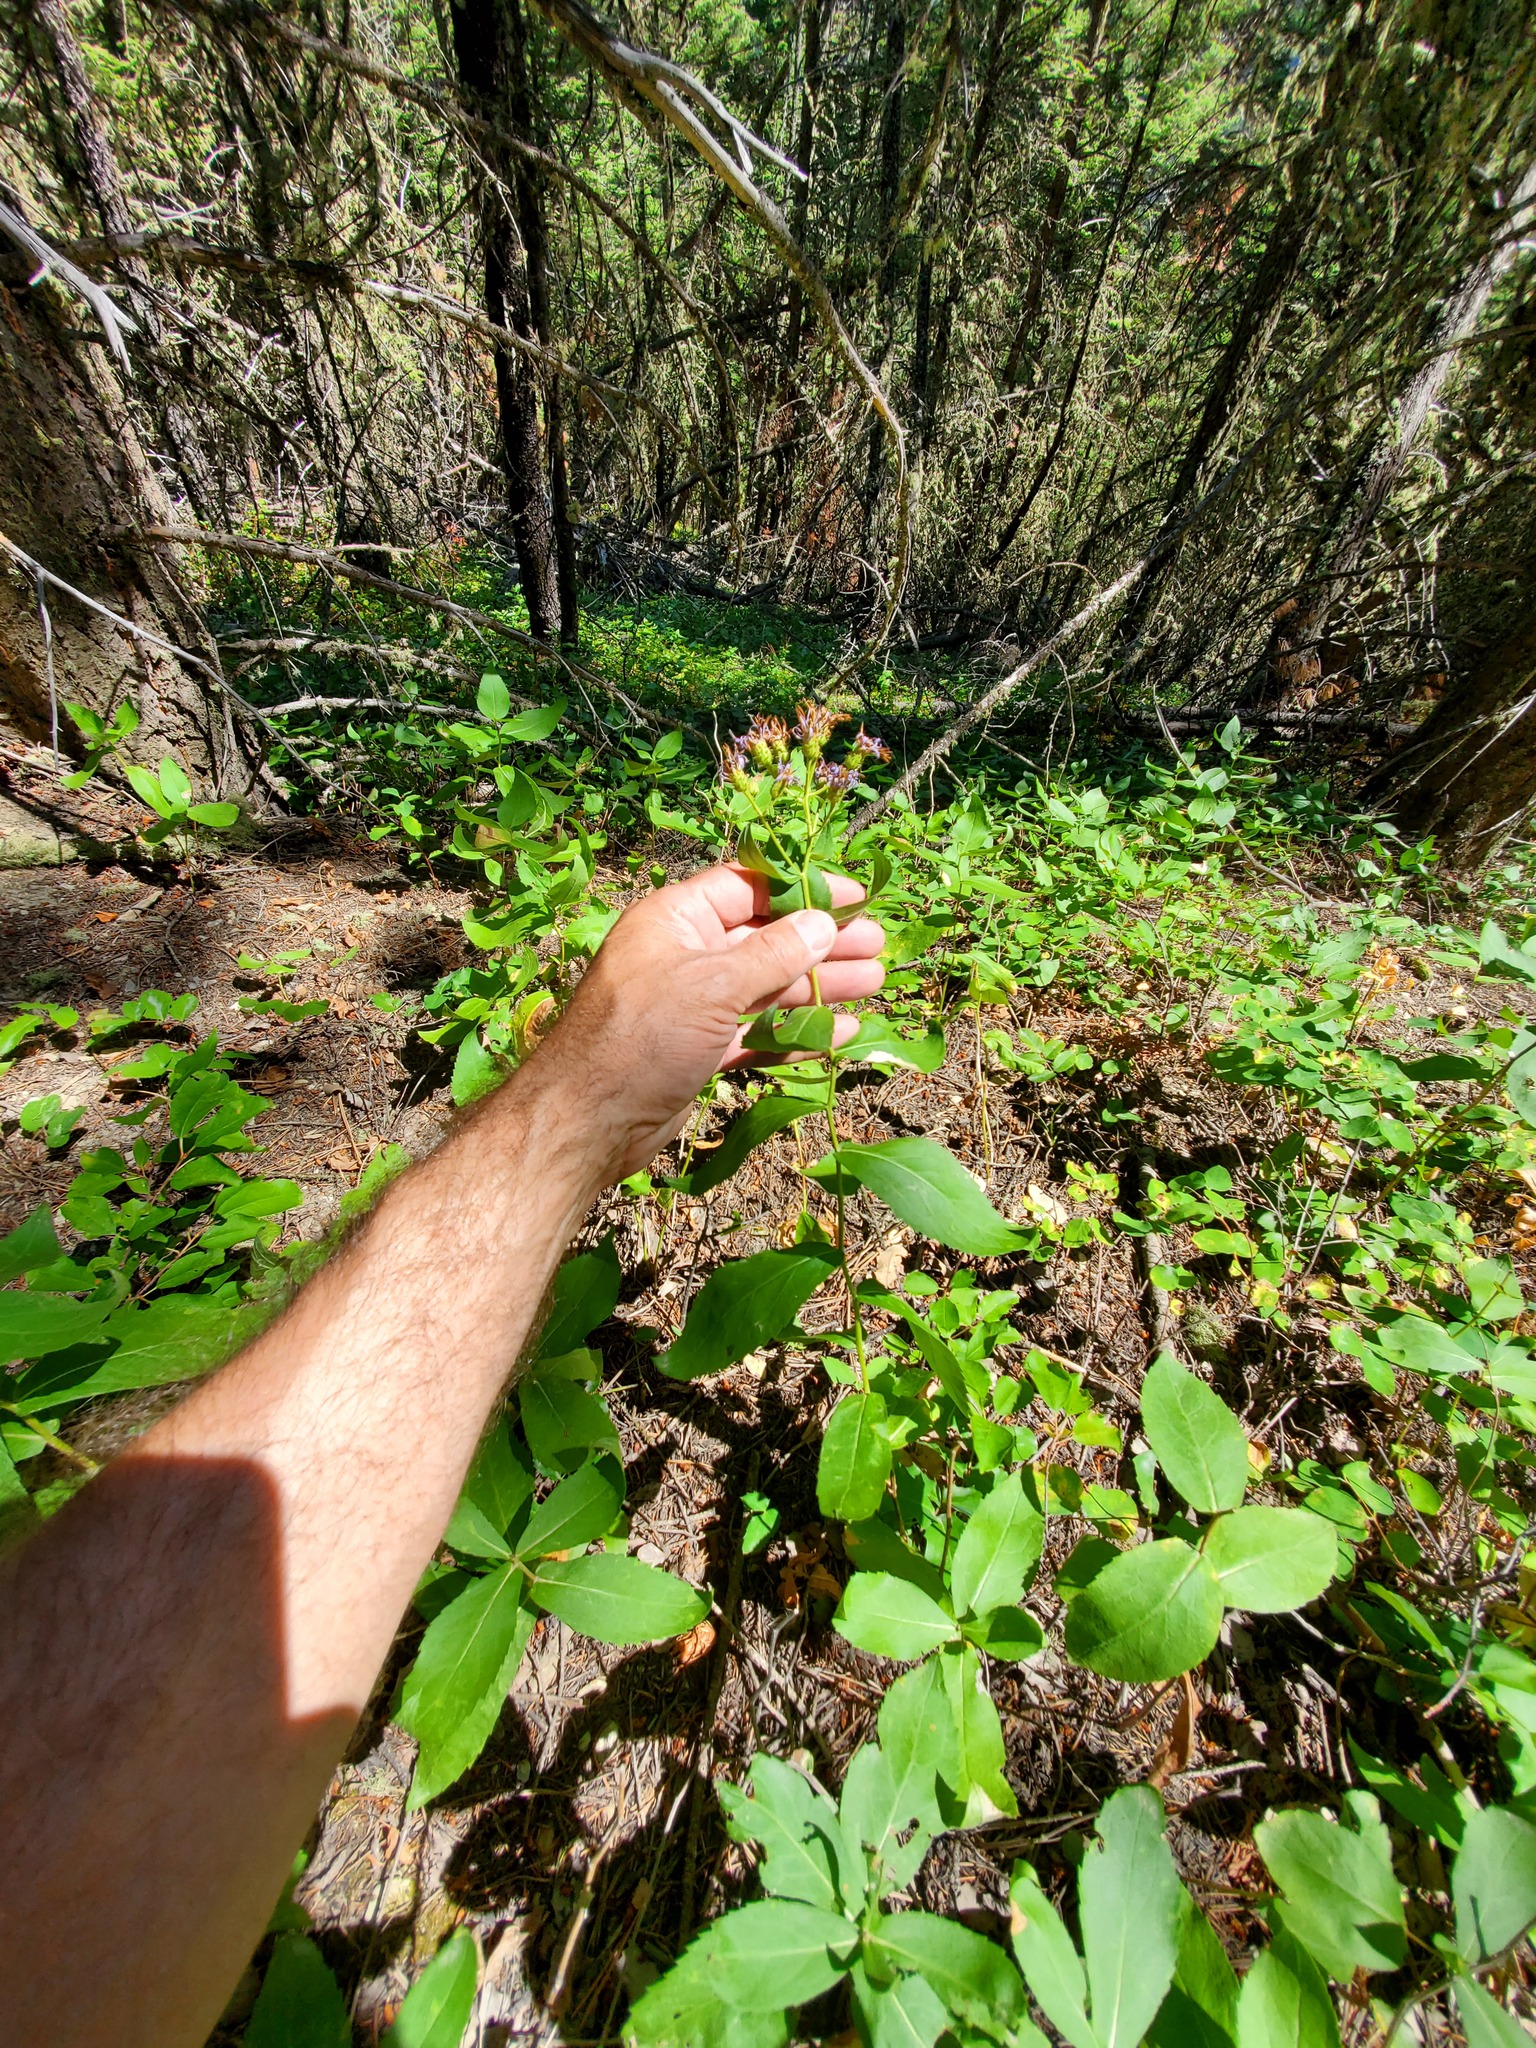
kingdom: Plantae
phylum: Tracheophyta
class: Magnoliopsida
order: Asterales
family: Asteraceae
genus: Eurybia
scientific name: Eurybia conspicua
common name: Showy aster
